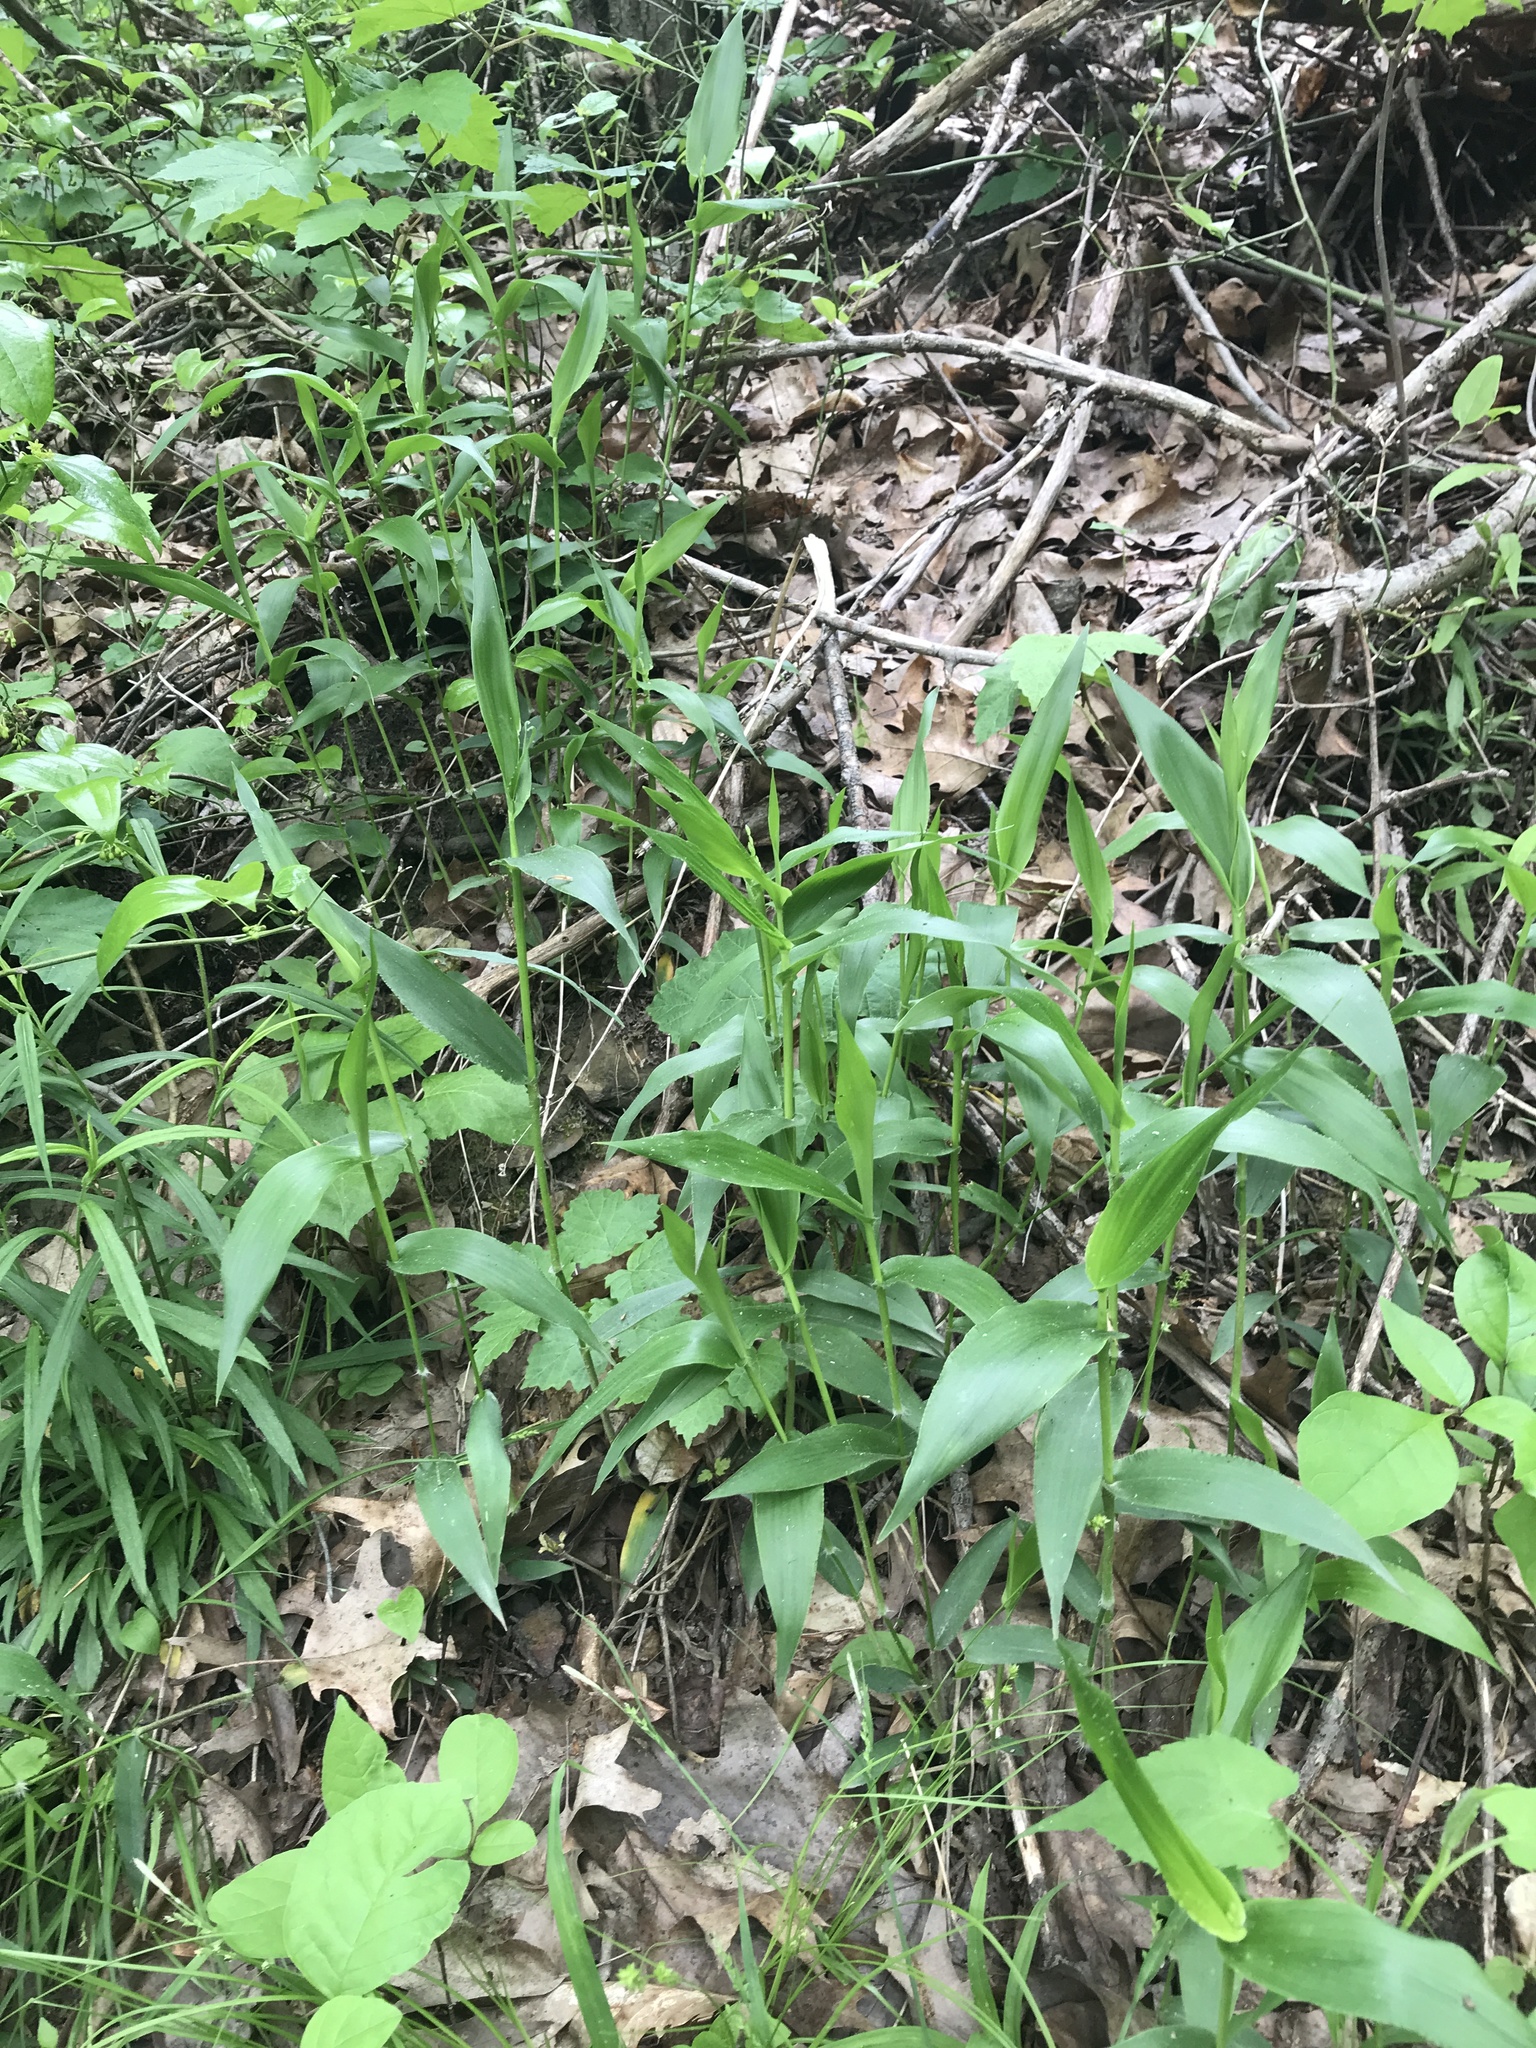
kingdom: Plantae
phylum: Tracheophyta
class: Liliopsida
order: Poales
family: Poaceae
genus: Dichanthelium
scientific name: Dichanthelium boscii
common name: Bosc's panic grass
